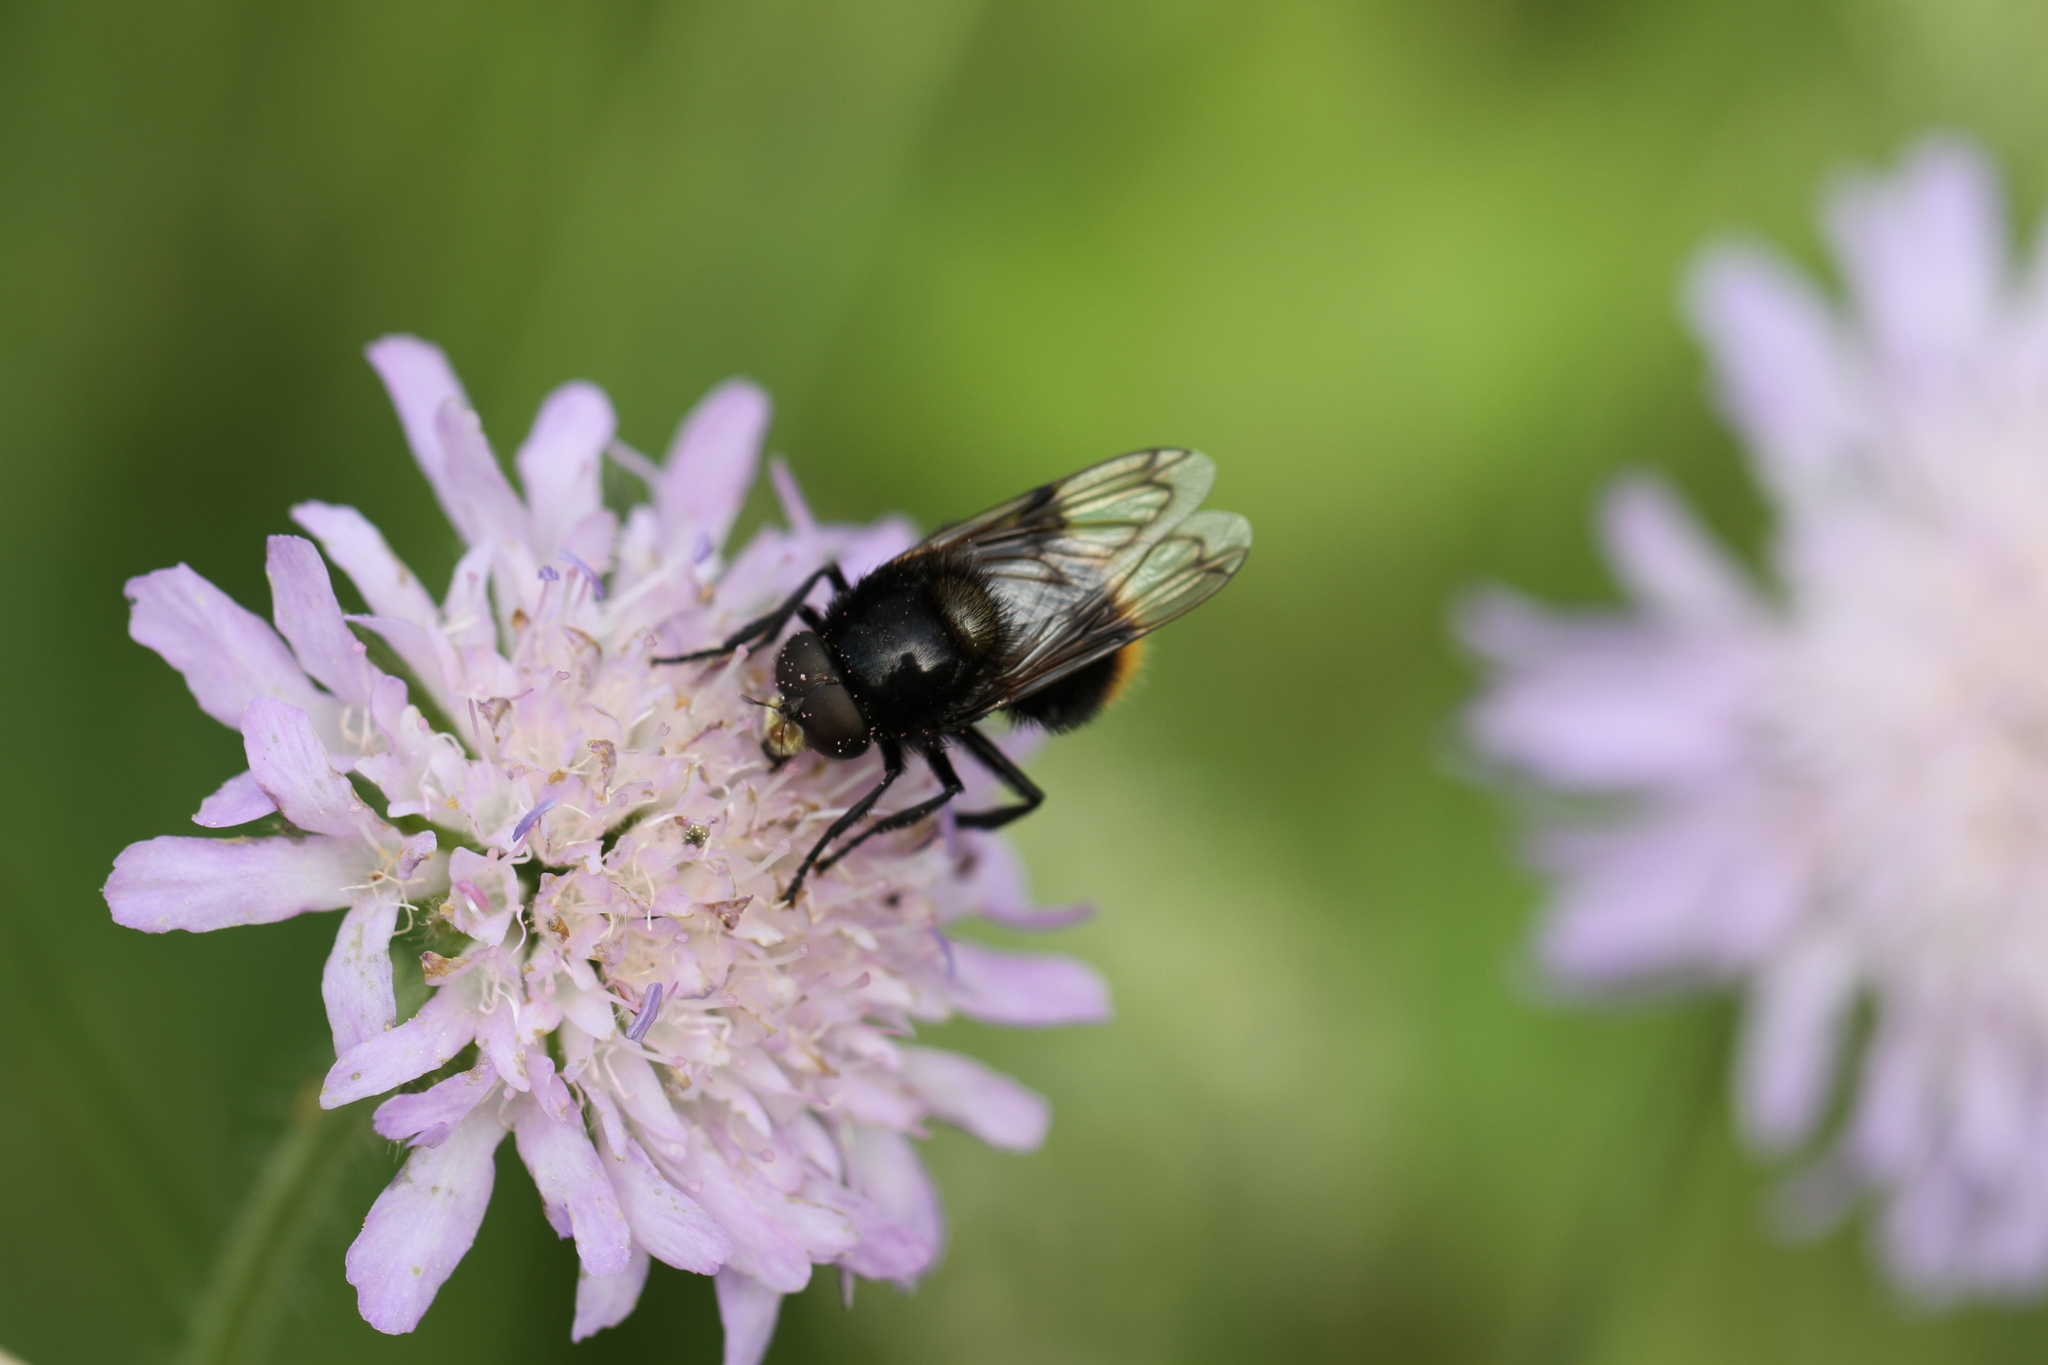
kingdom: Animalia
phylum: Arthropoda
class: Insecta
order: Diptera
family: Syrphidae
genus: Volucella
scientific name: Volucella bombylans
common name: Bumble bee hover fly
